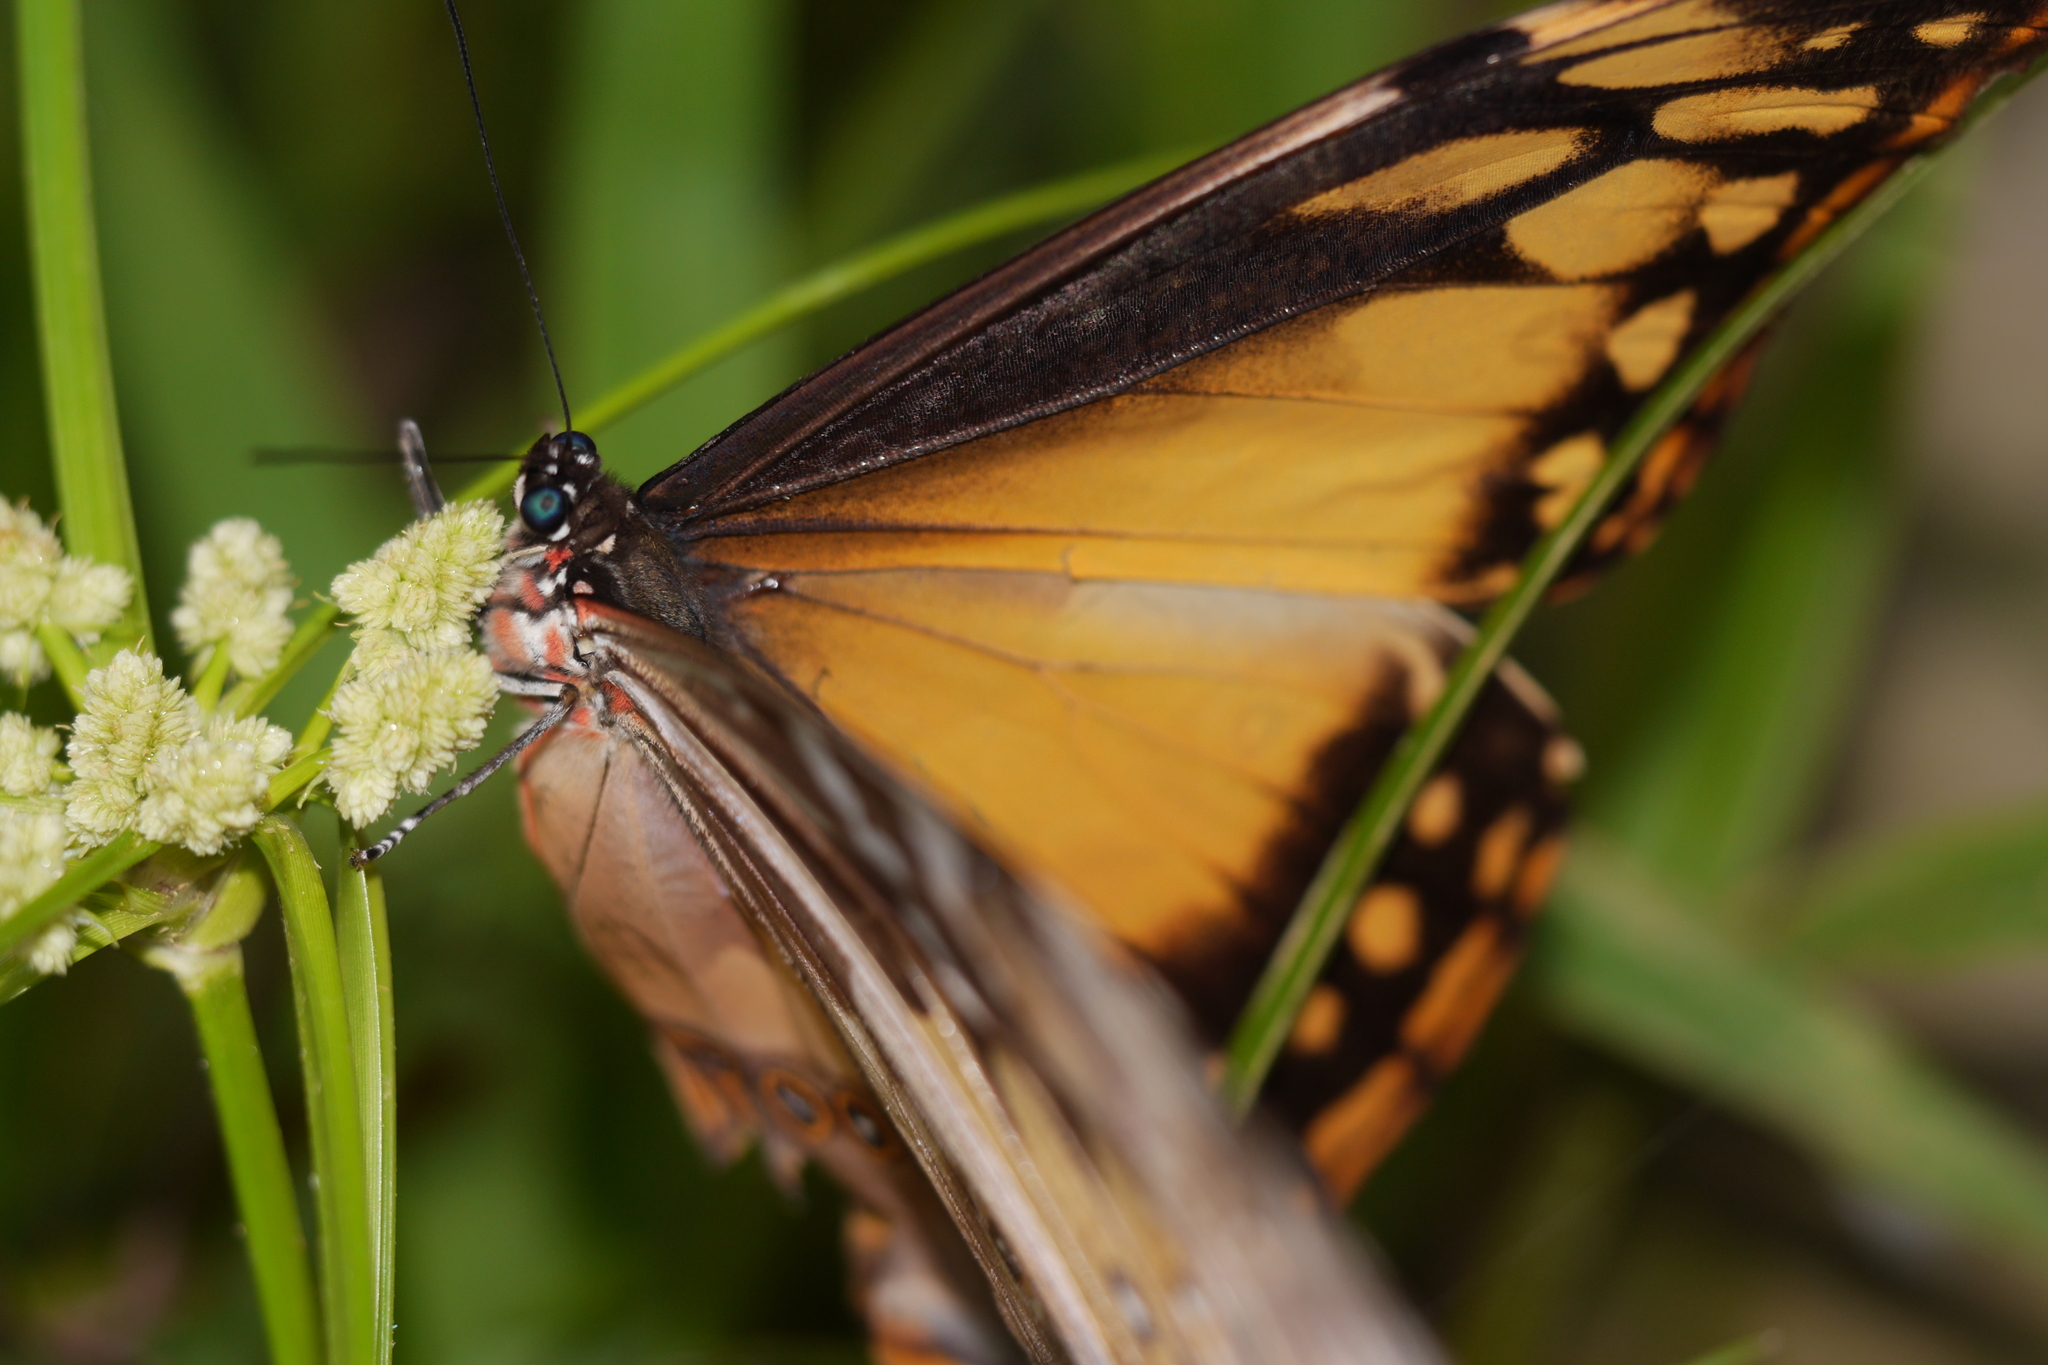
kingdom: Animalia
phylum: Arthropoda
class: Insecta
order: Lepidoptera
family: Nymphalidae
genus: Morpho
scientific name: Morpho cypris
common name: Cypris morpho
